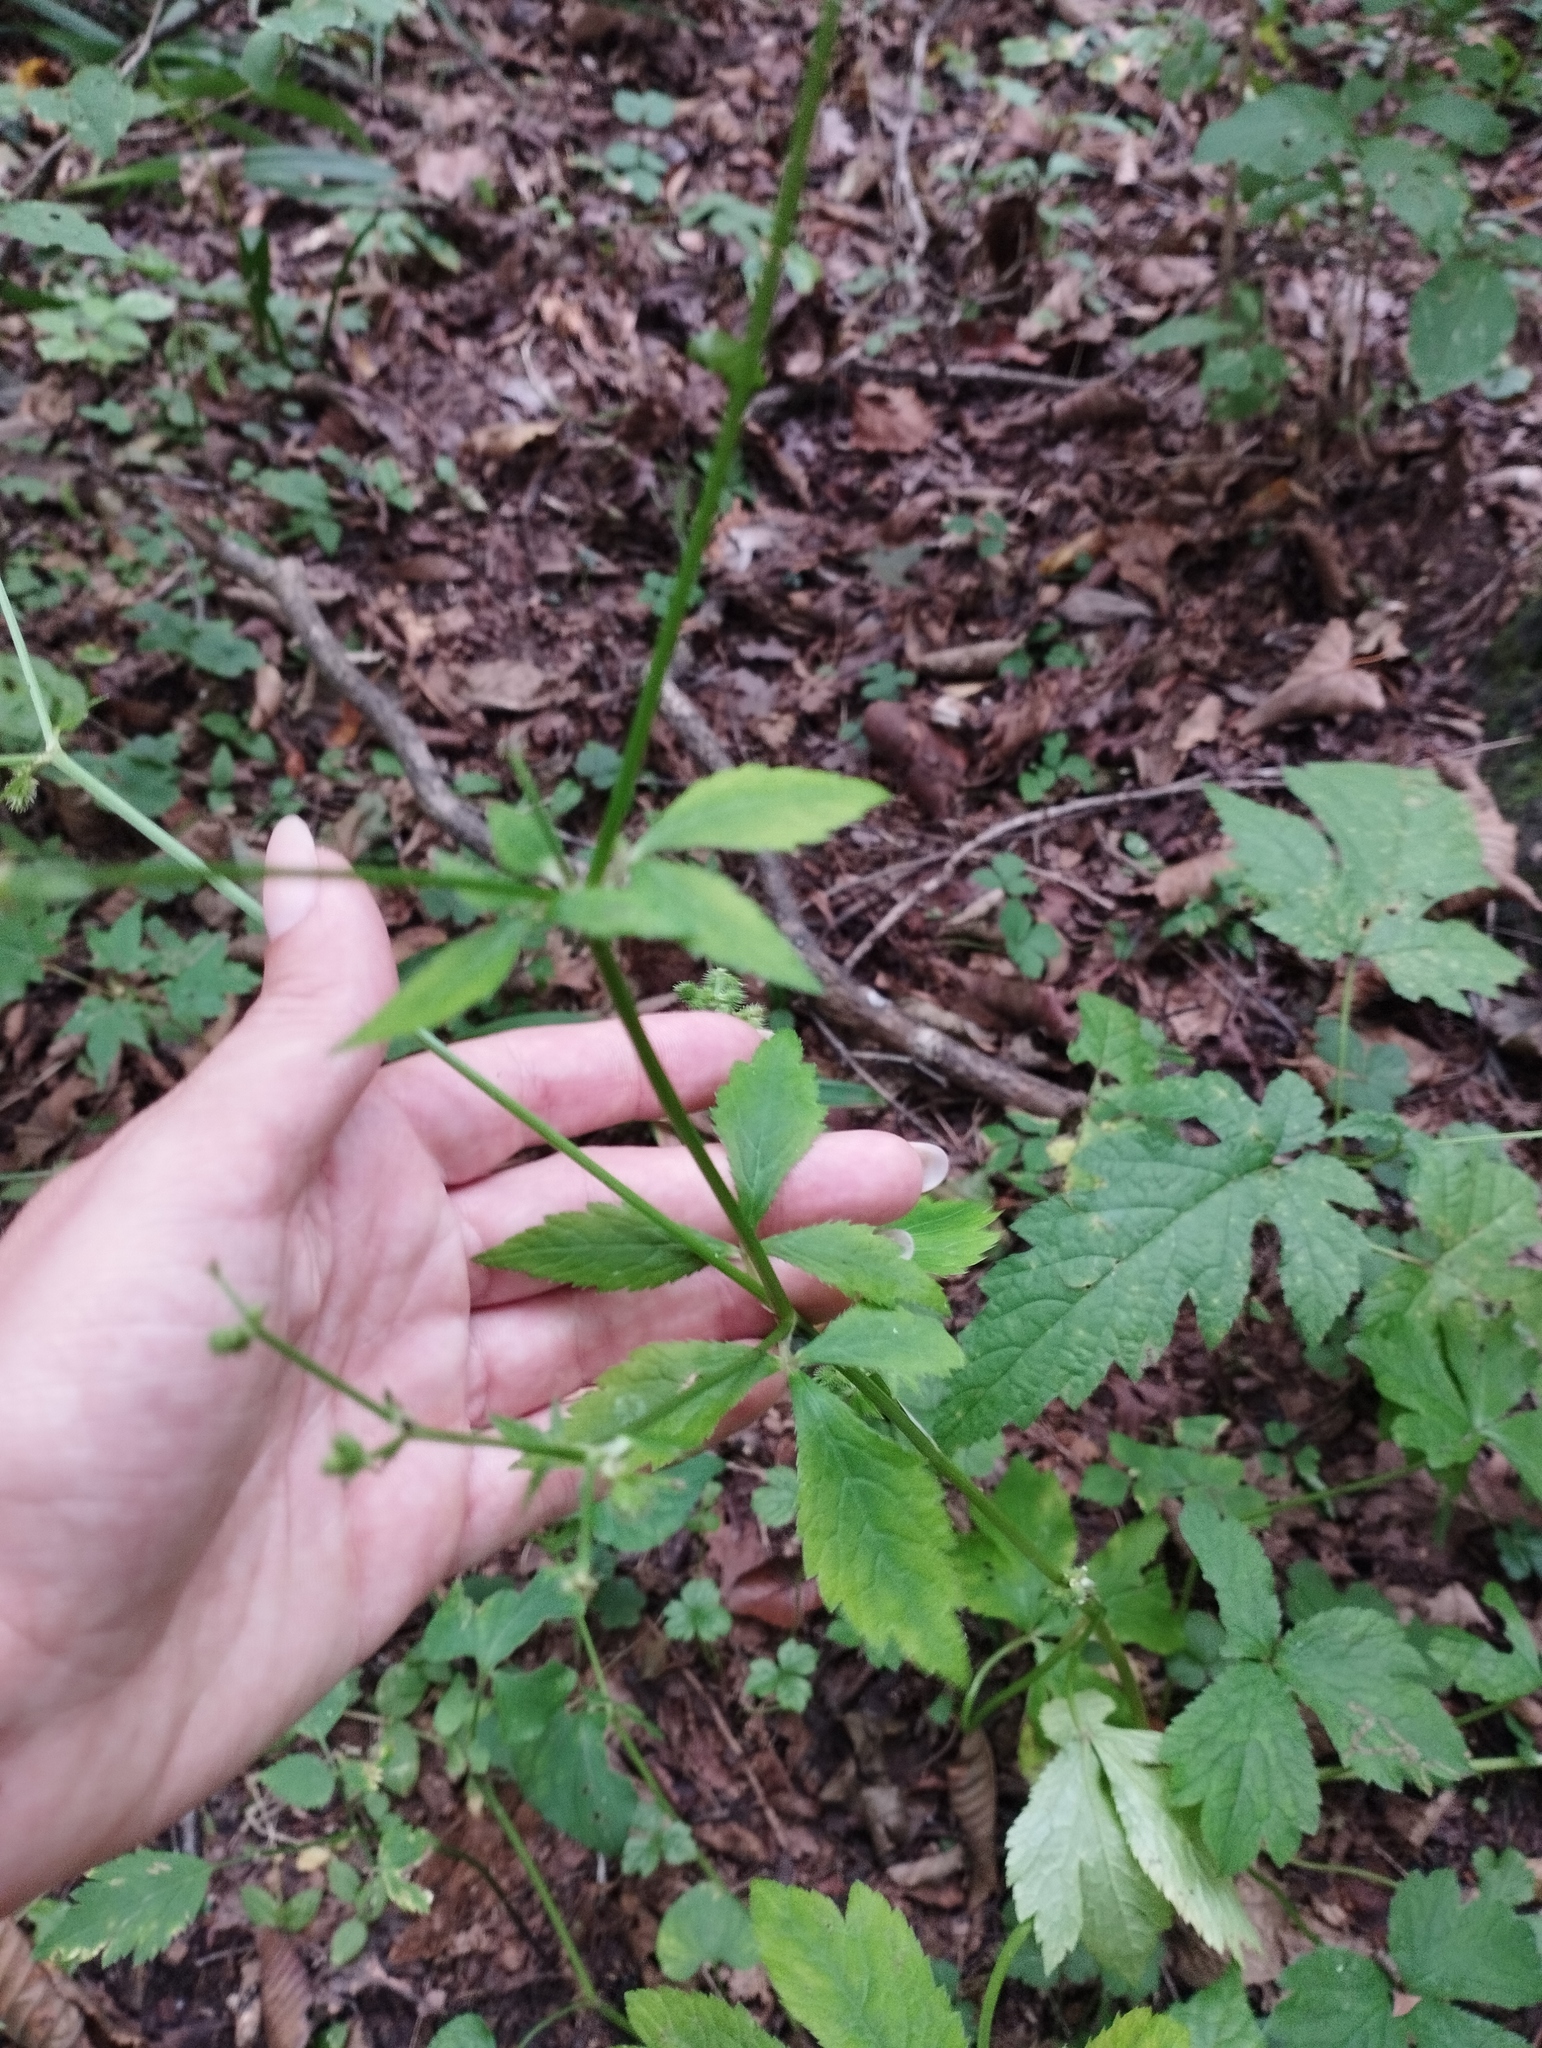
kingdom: Plantae
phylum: Tracheophyta
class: Magnoliopsida
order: Apiales
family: Apiaceae
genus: Sanicula
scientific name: Sanicula chinensis
